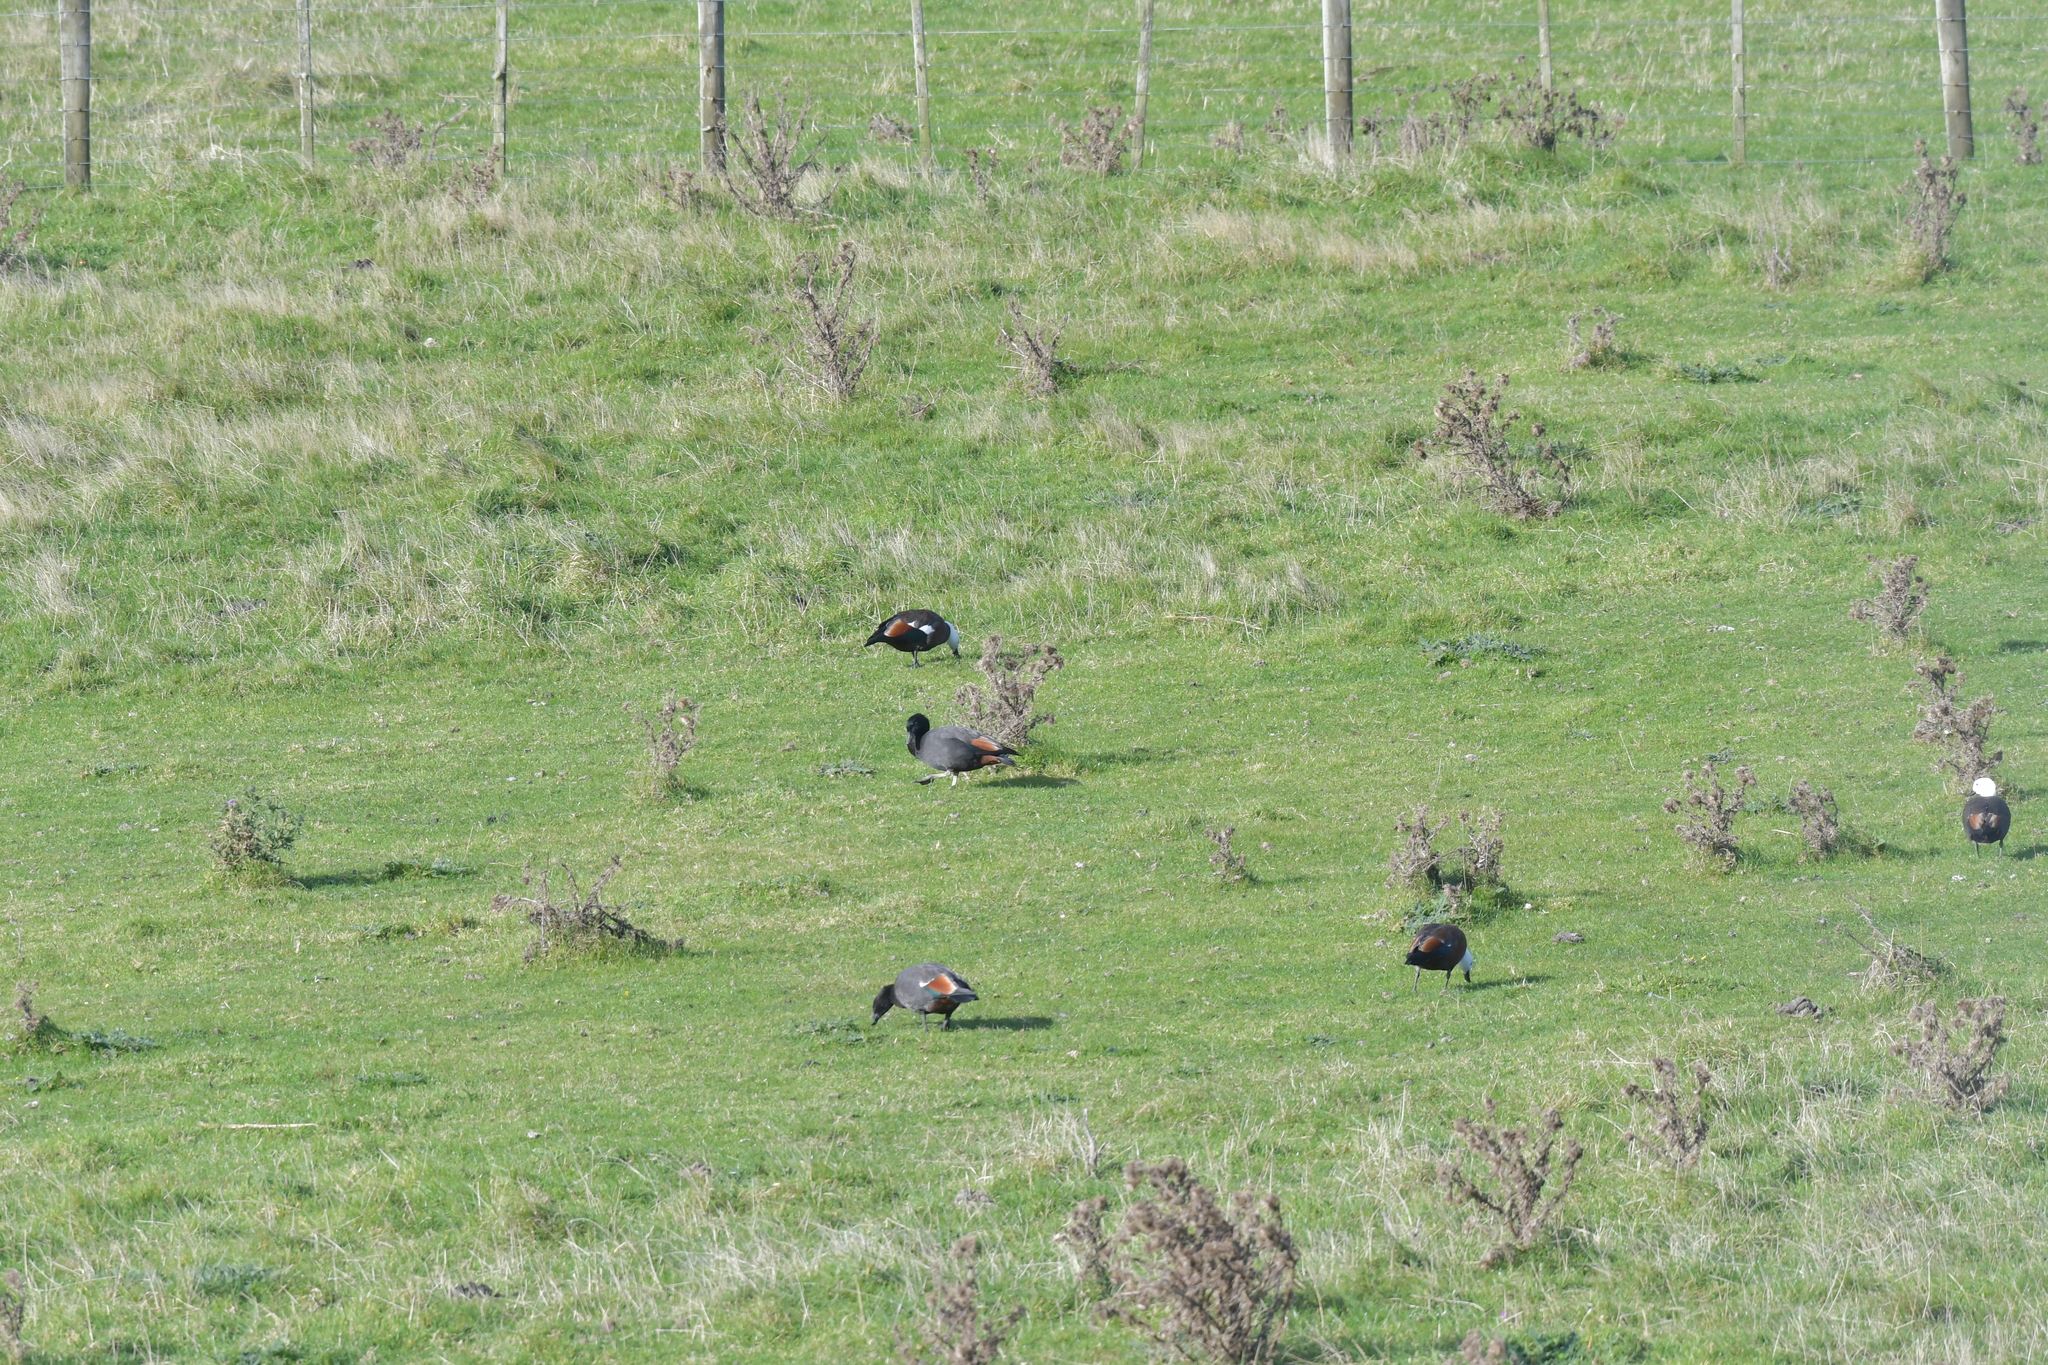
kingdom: Animalia
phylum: Chordata
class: Aves
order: Anseriformes
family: Anatidae
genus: Tadorna
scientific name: Tadorna variegata
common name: Paradise shelduck
